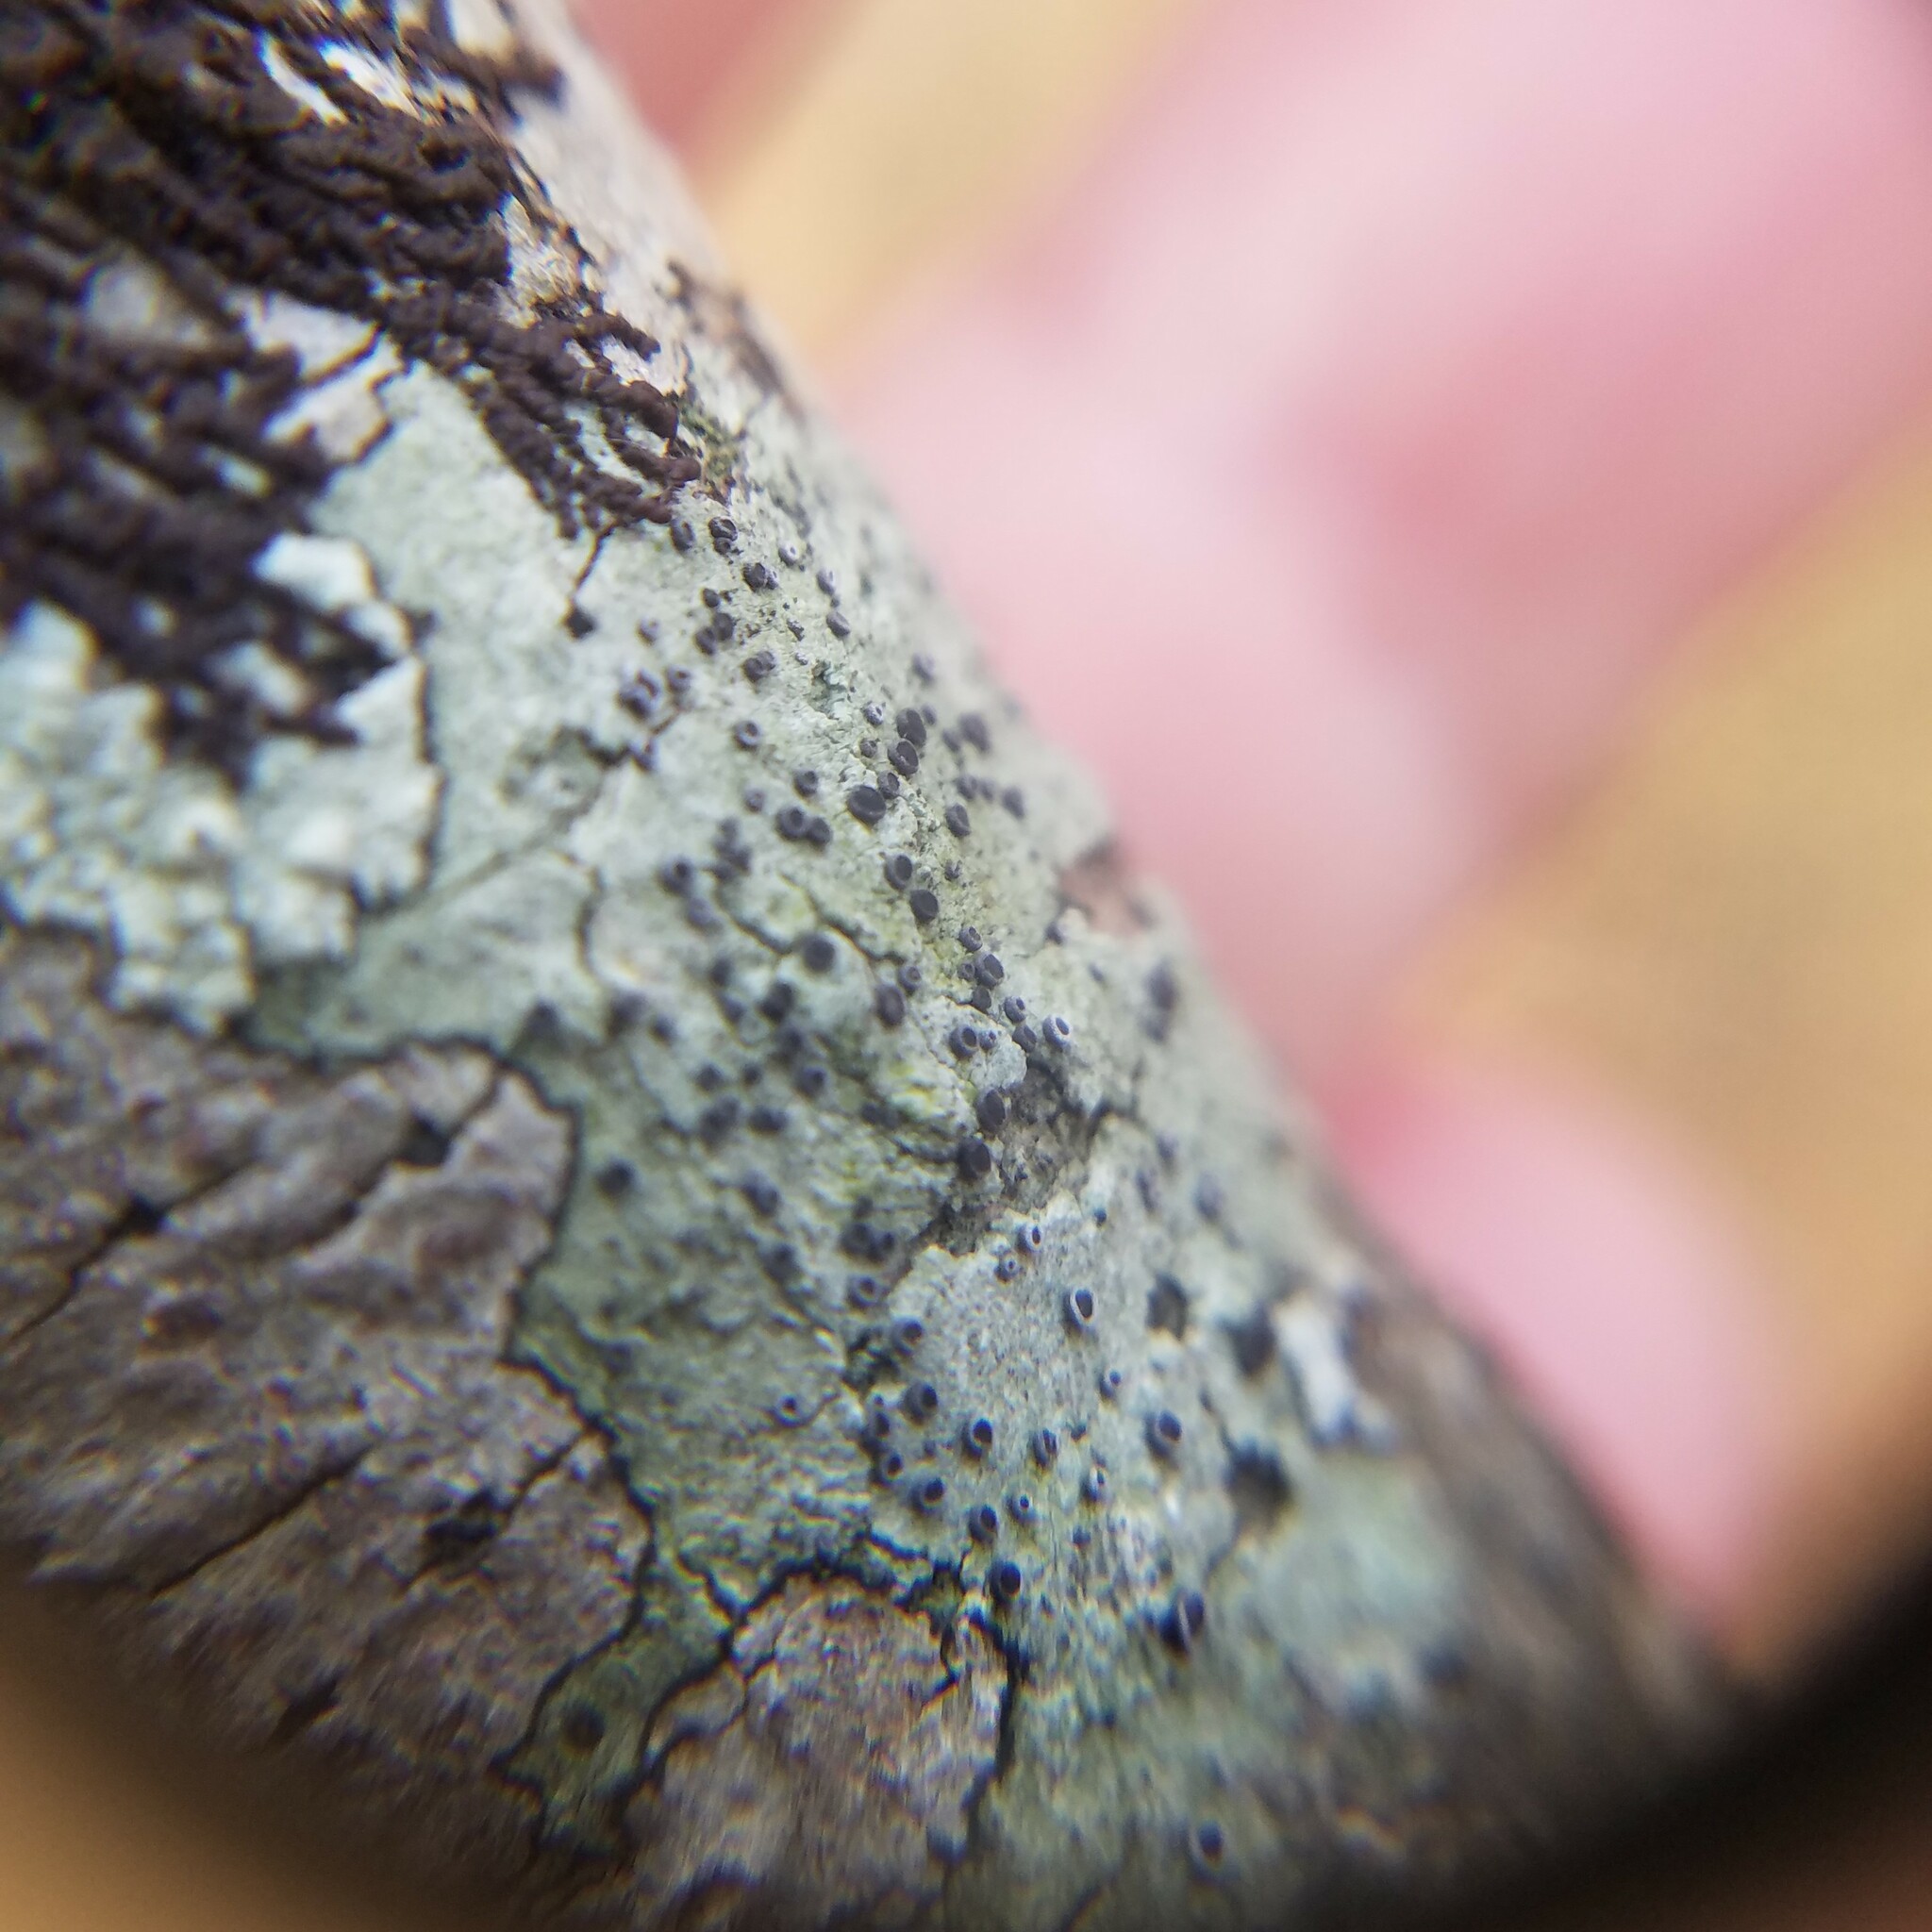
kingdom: Fungi
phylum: Ascomycota
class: Lecanoromycetes
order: Lecanorales
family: Ramalinaceae
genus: Bacidia
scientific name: Bacidia suffusa
